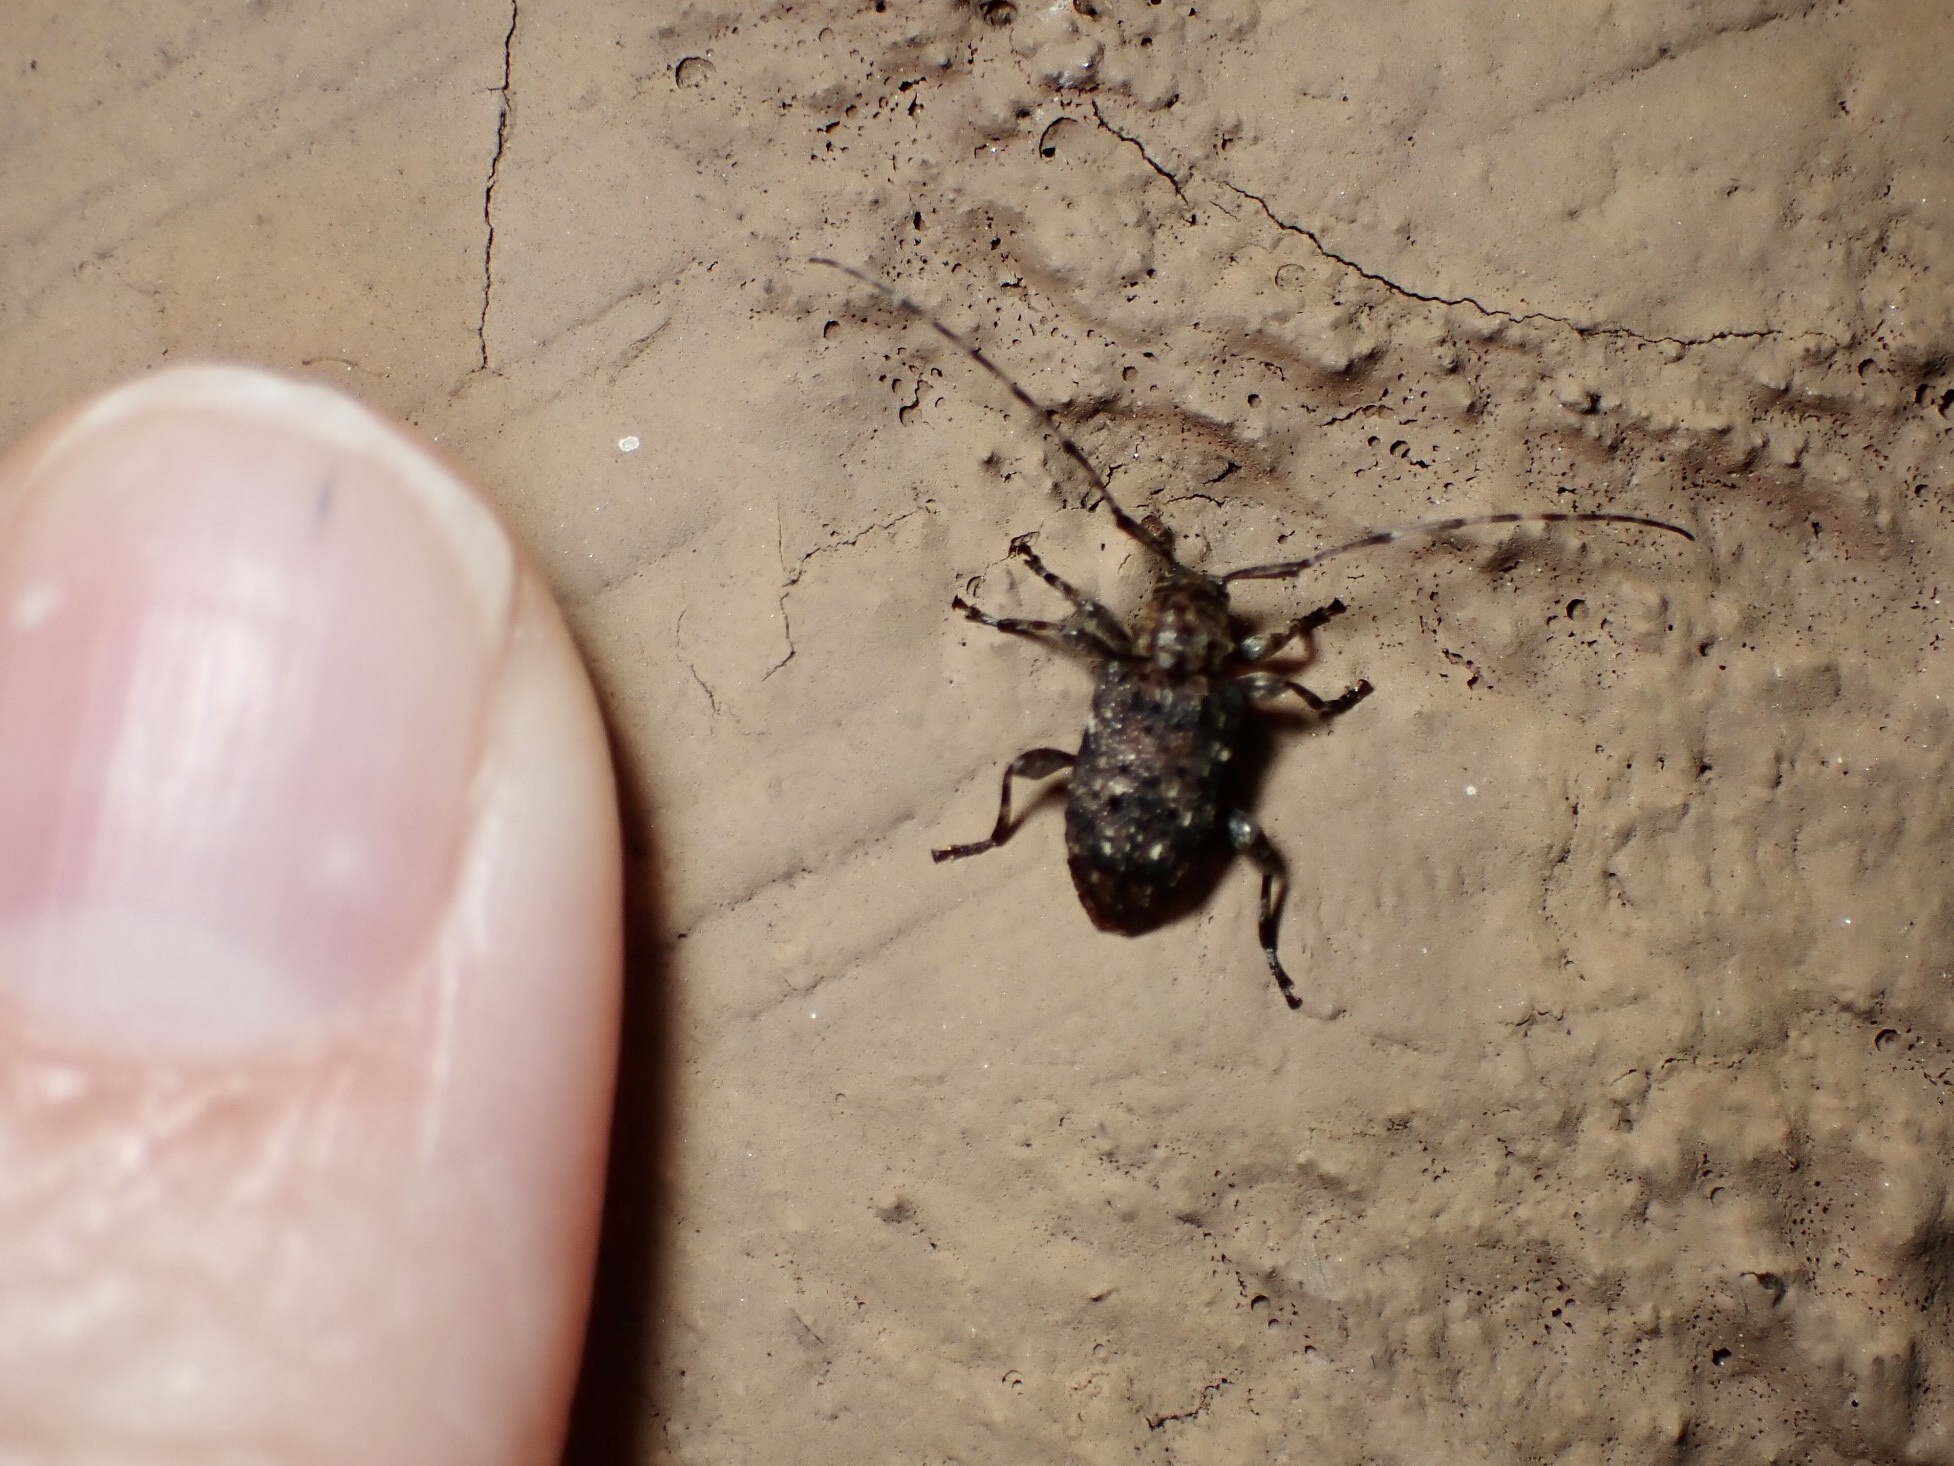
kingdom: Animalia
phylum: Arthropoda
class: Insecta
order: Coleoptera
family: Cerambycidae
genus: Astylopsis
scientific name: Astylopsis sexguttata
